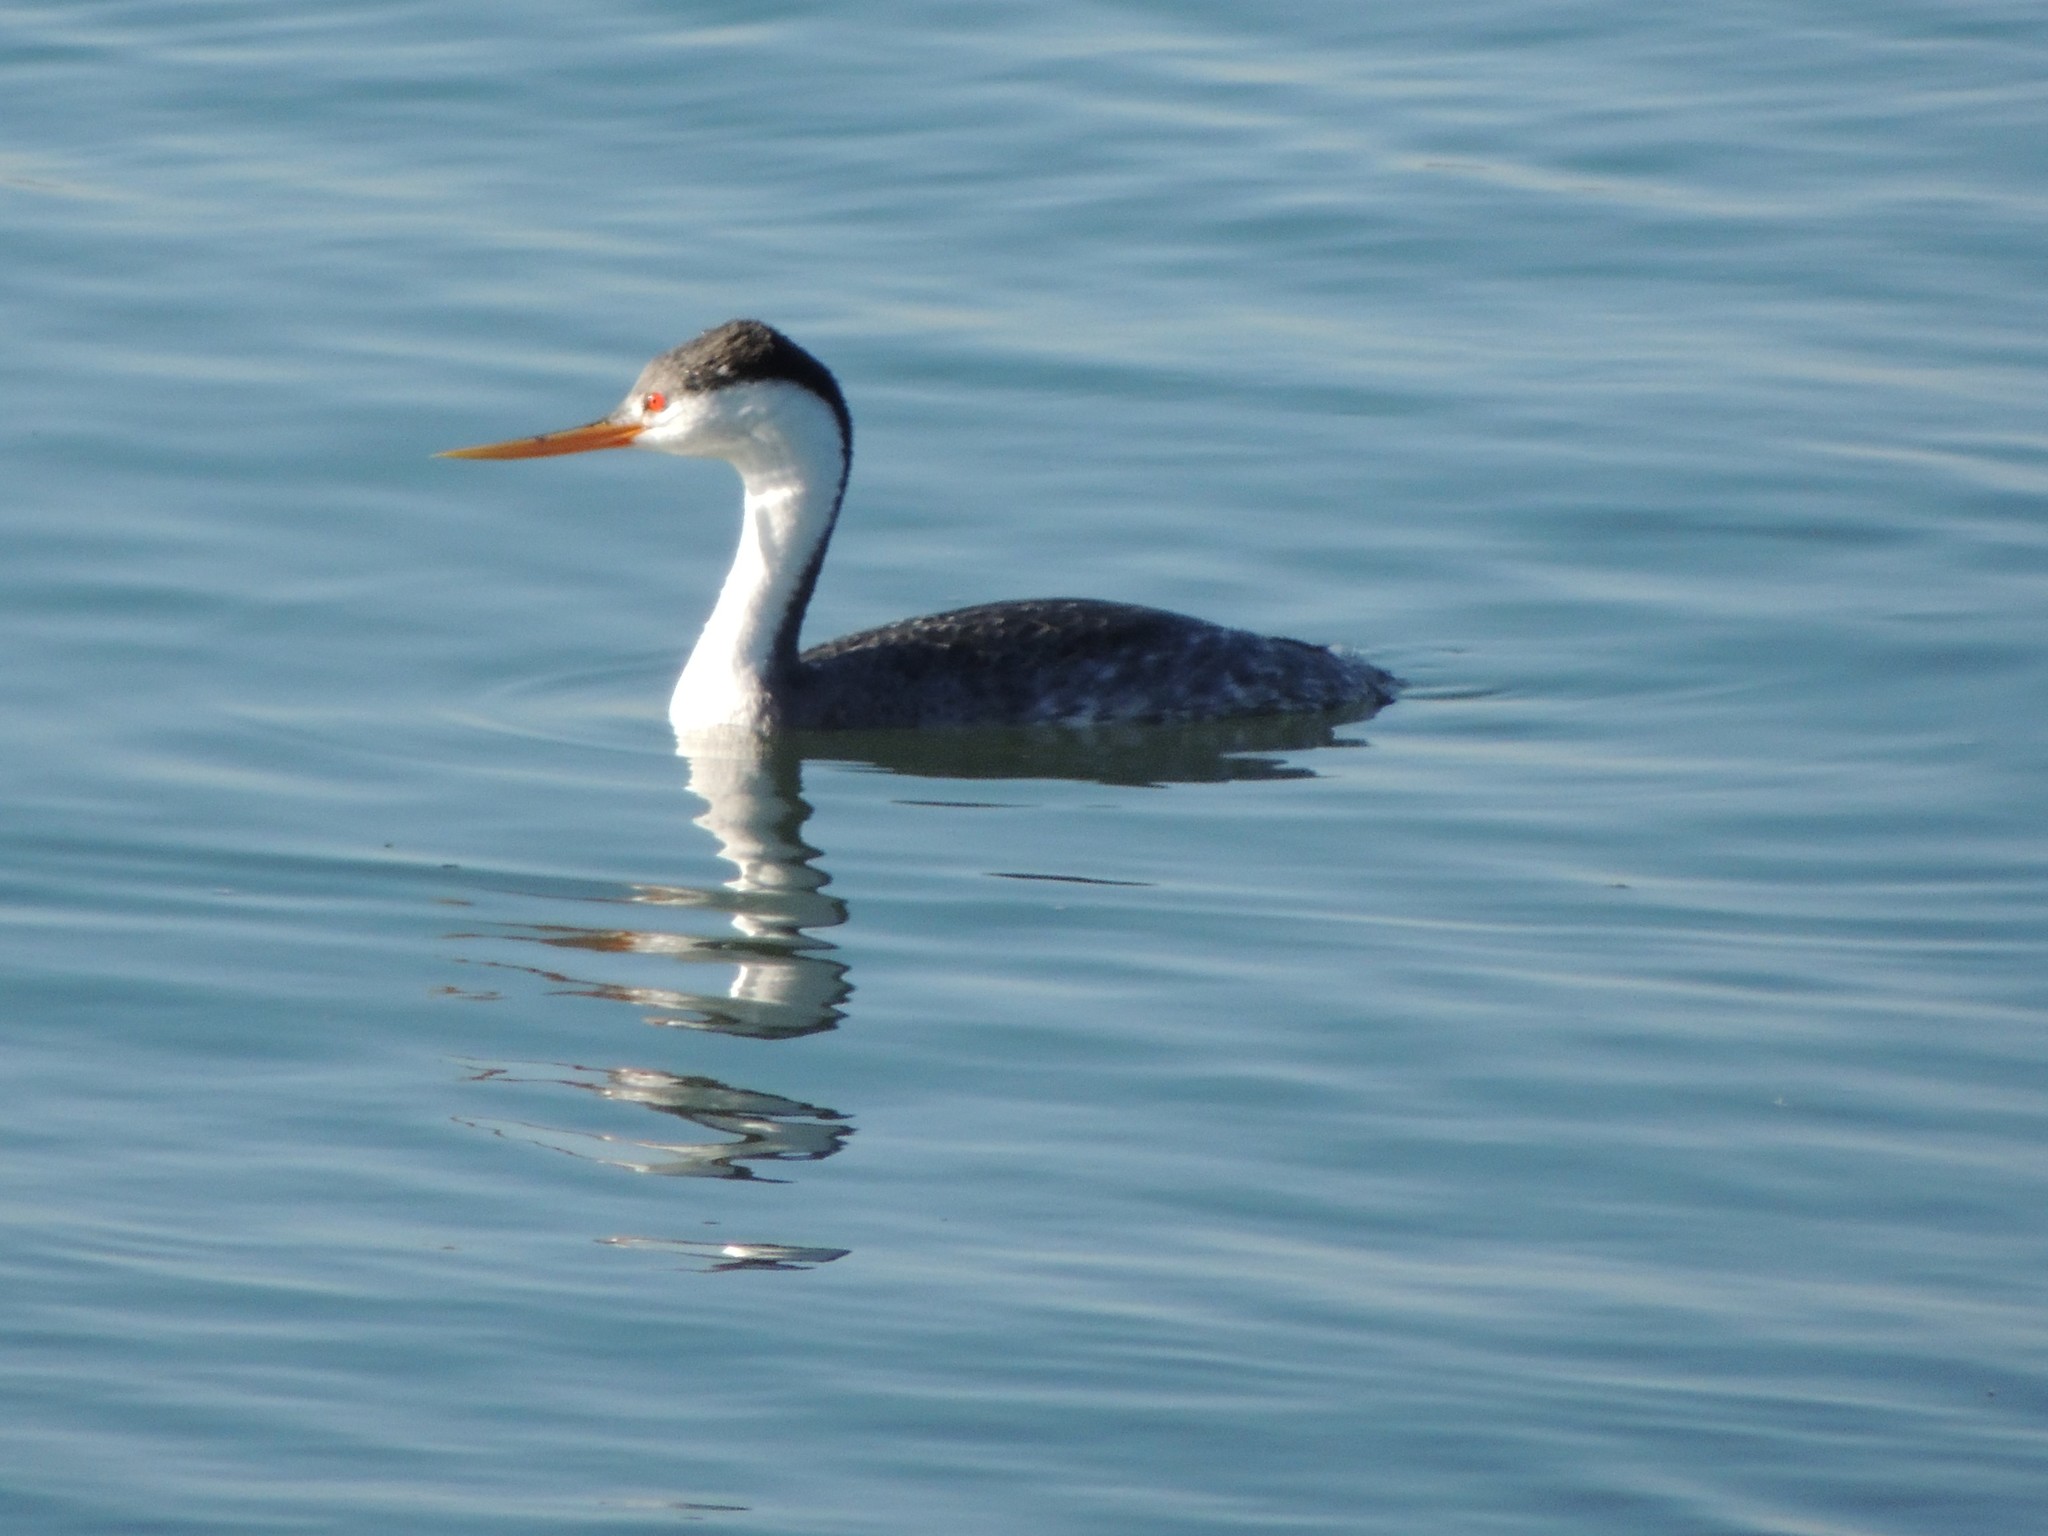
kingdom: Animalia
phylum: Chordata
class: Aves
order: Podicipediformes
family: Podicipedidae
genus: Aechmophorus
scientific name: Aechmophorus clarkii
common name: Clark's grebe
